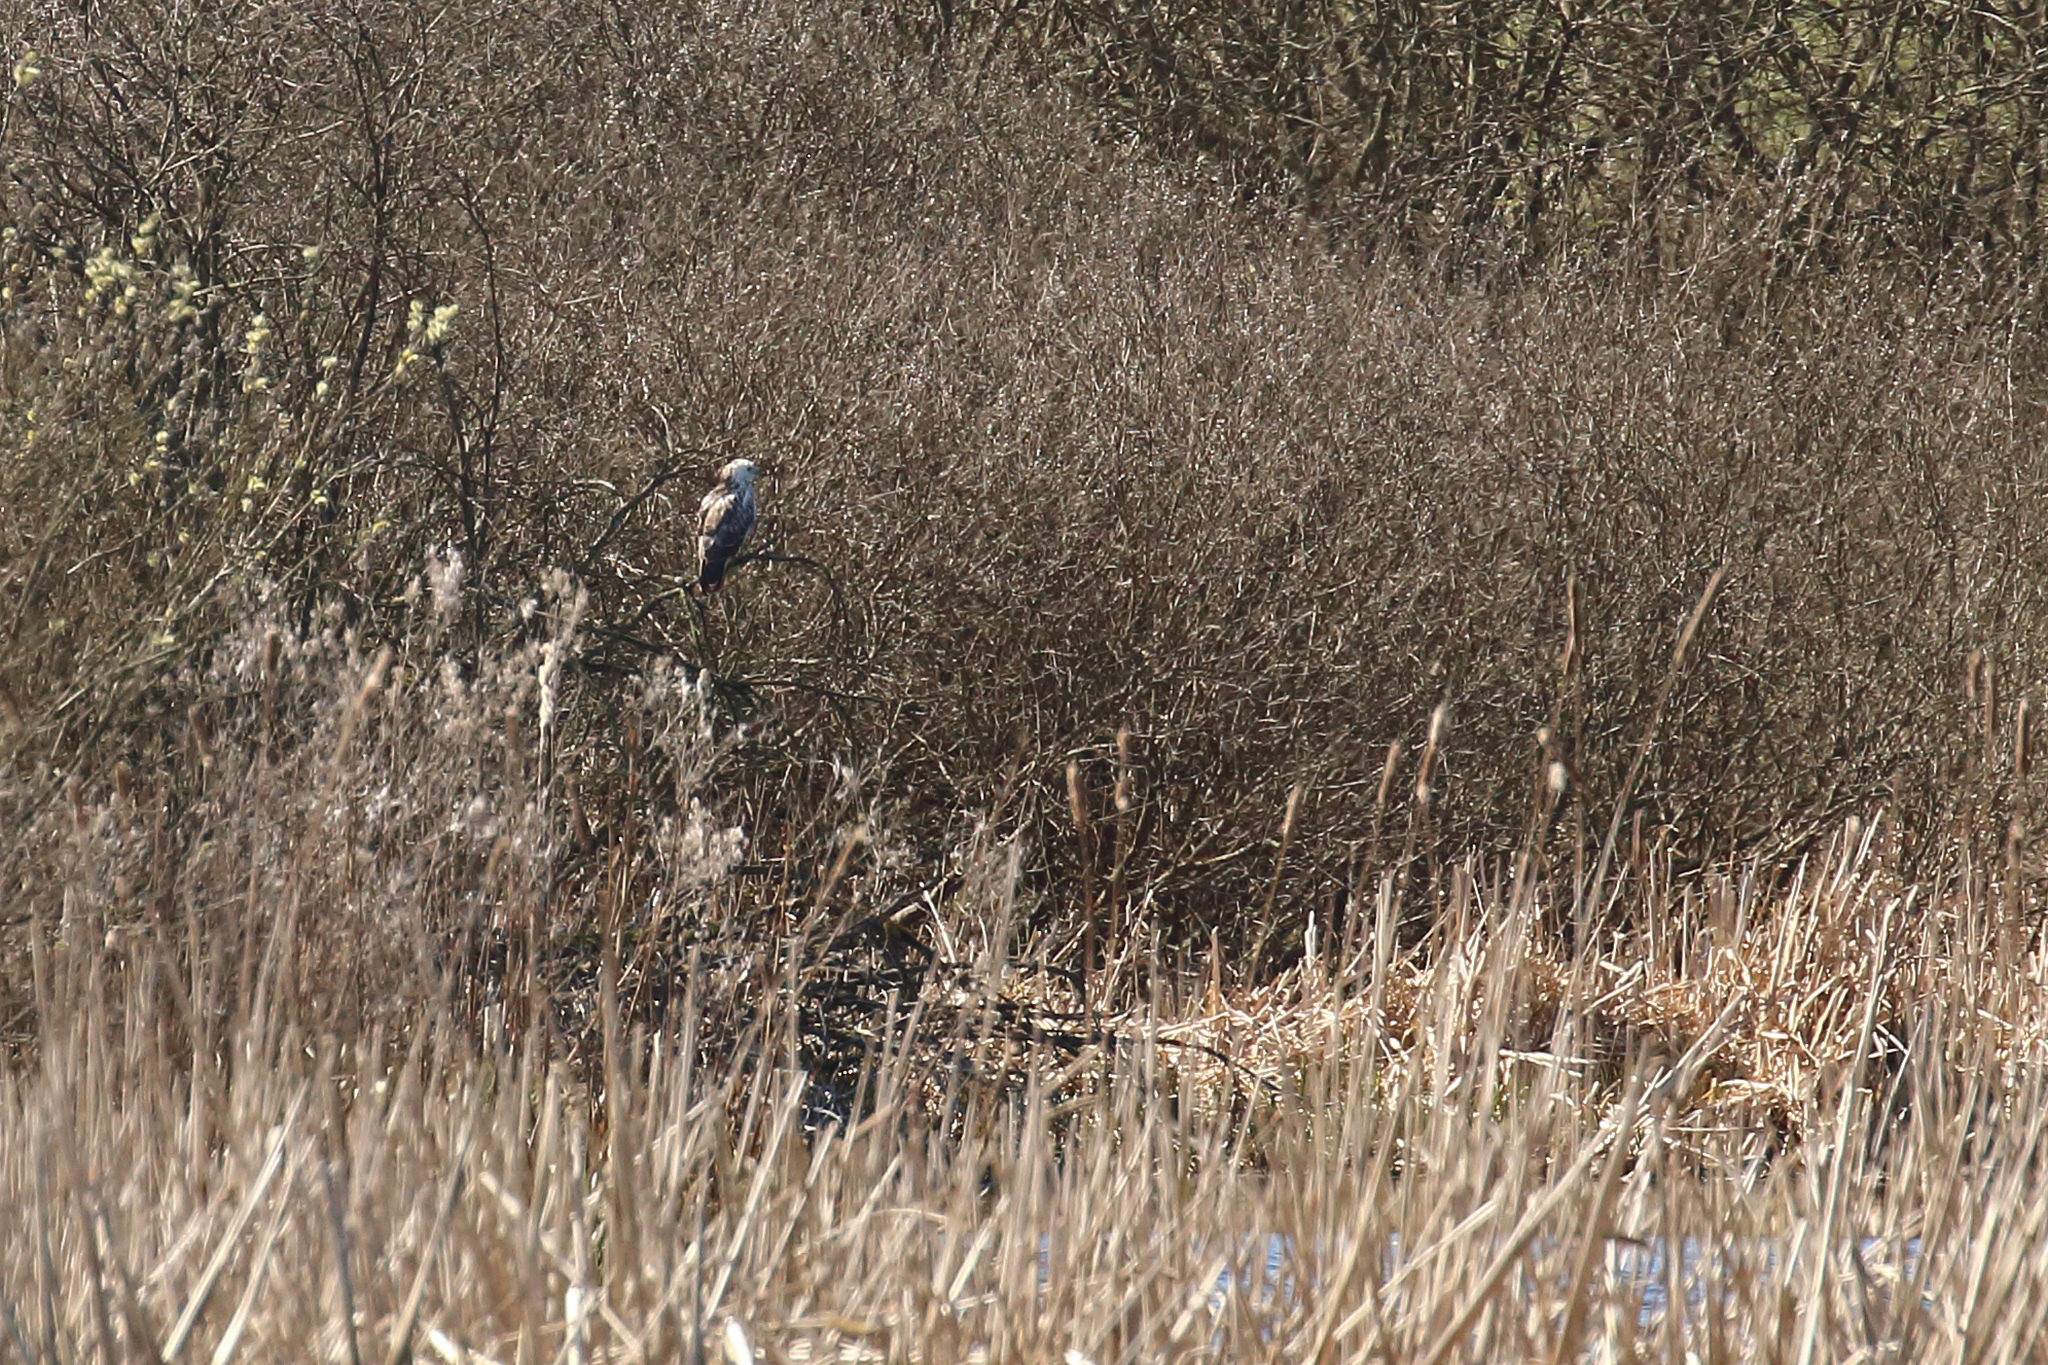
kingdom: Animalia
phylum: Chordata
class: Aves
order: Accipitriformes
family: Accipitridae
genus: Buteo
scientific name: Buteo buteo
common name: Common buzzard
